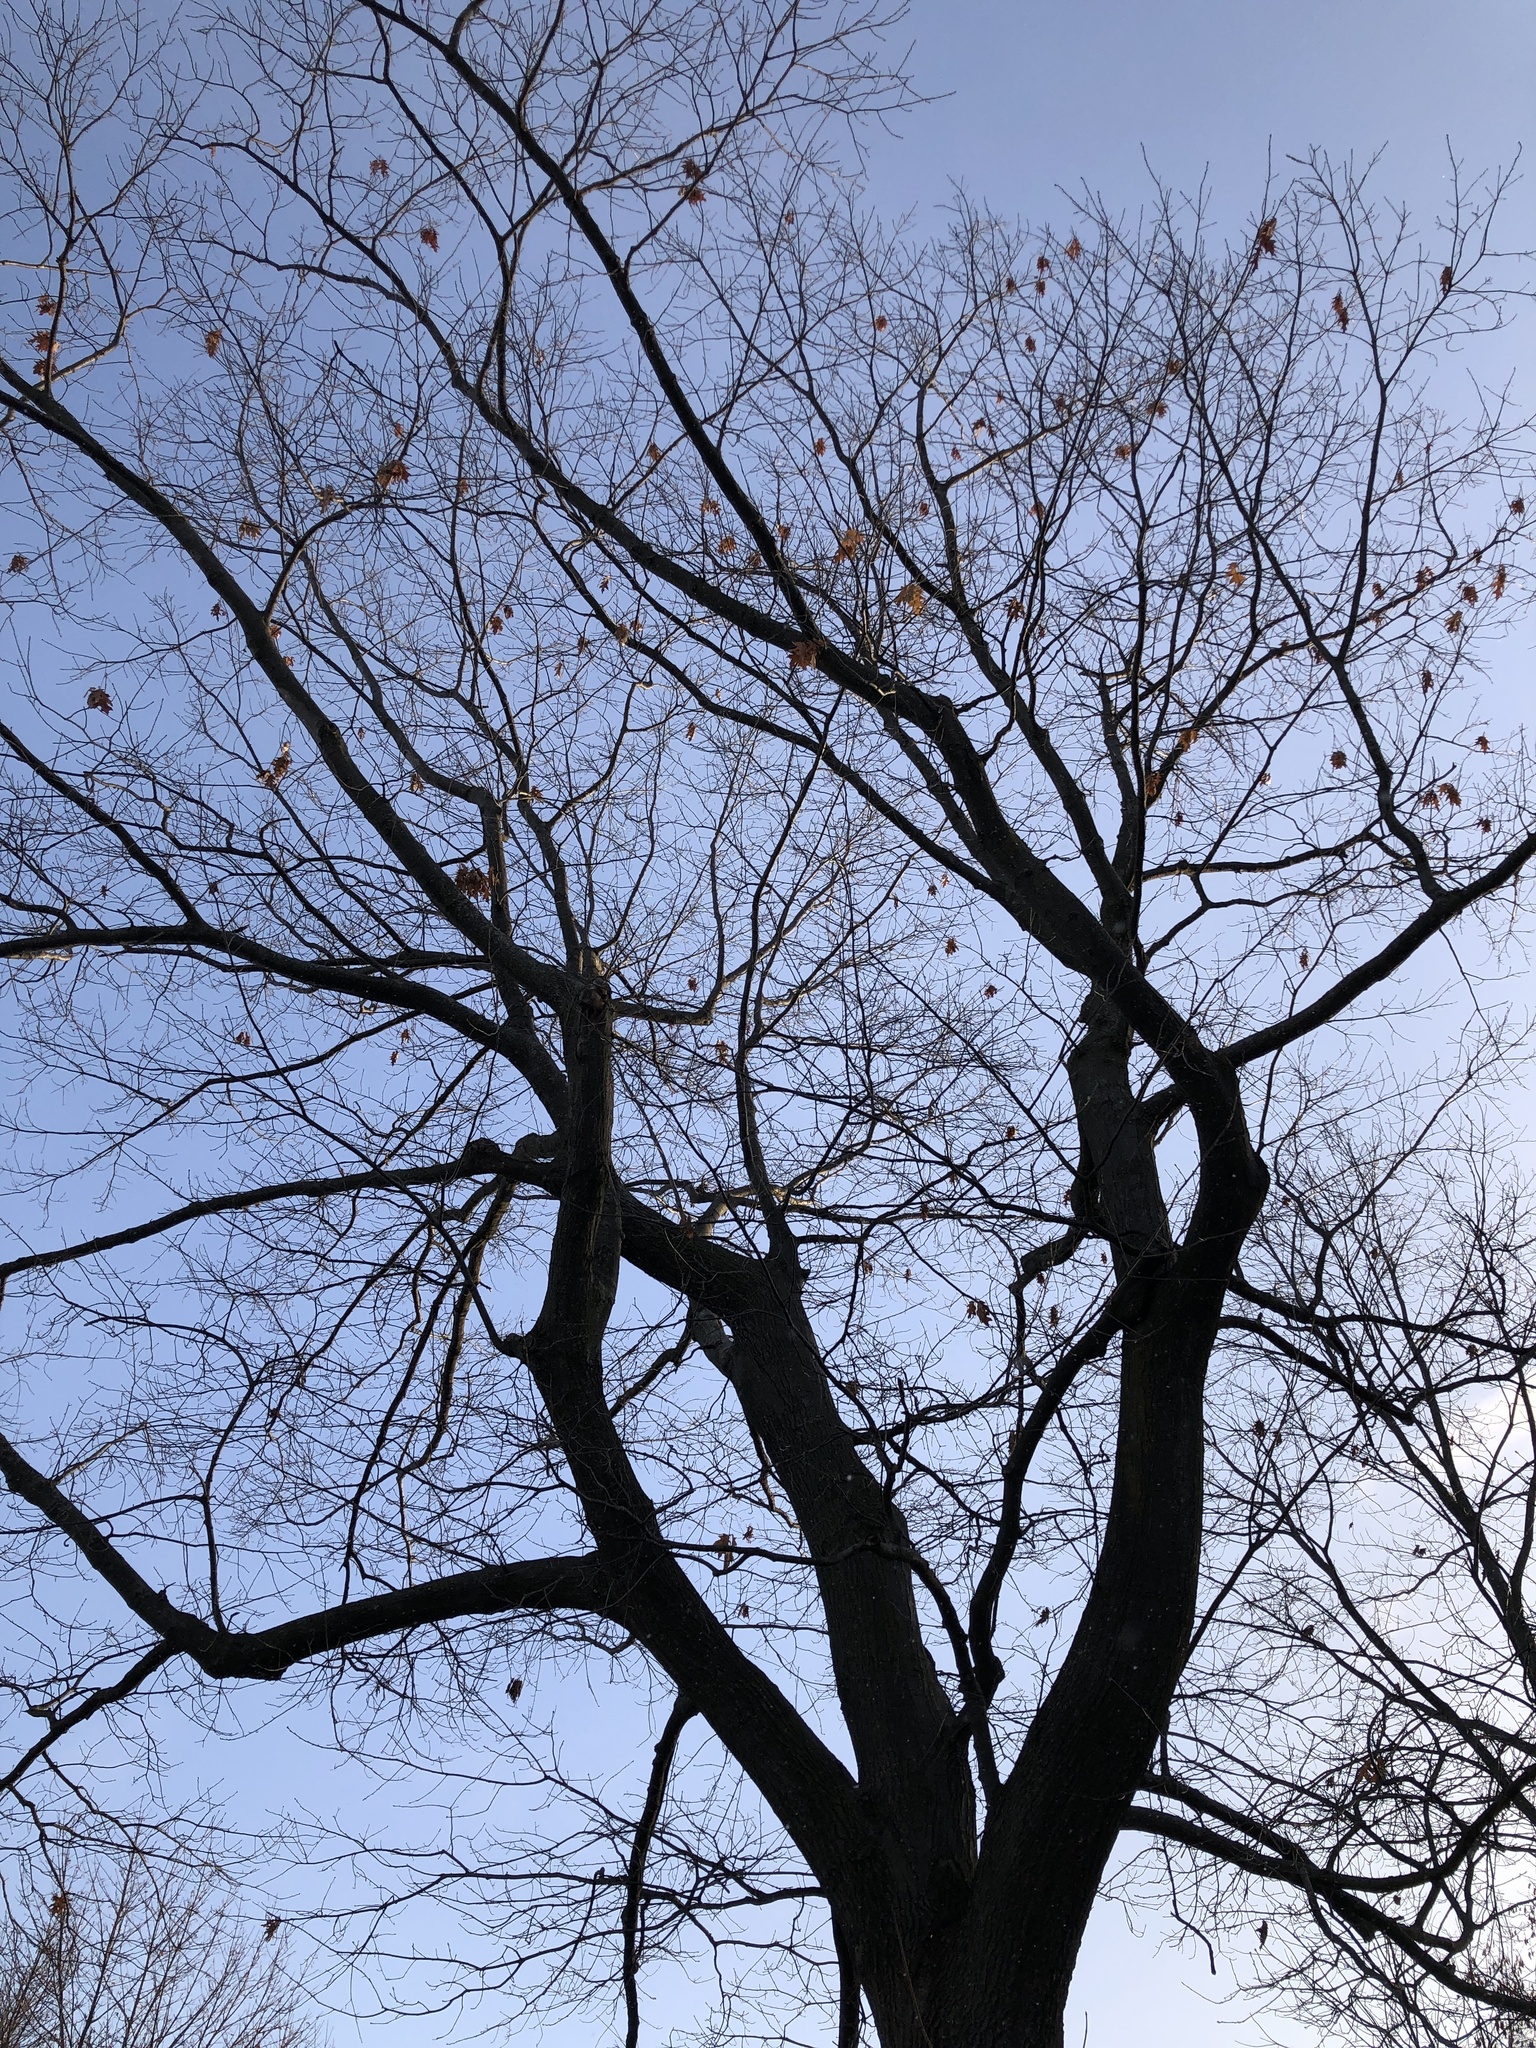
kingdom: Plantae
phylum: Tracheophyta
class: Magnoliopsida
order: Fagales
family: Fagaceae
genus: Quercus
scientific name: Quercus rubra
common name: Red oak
